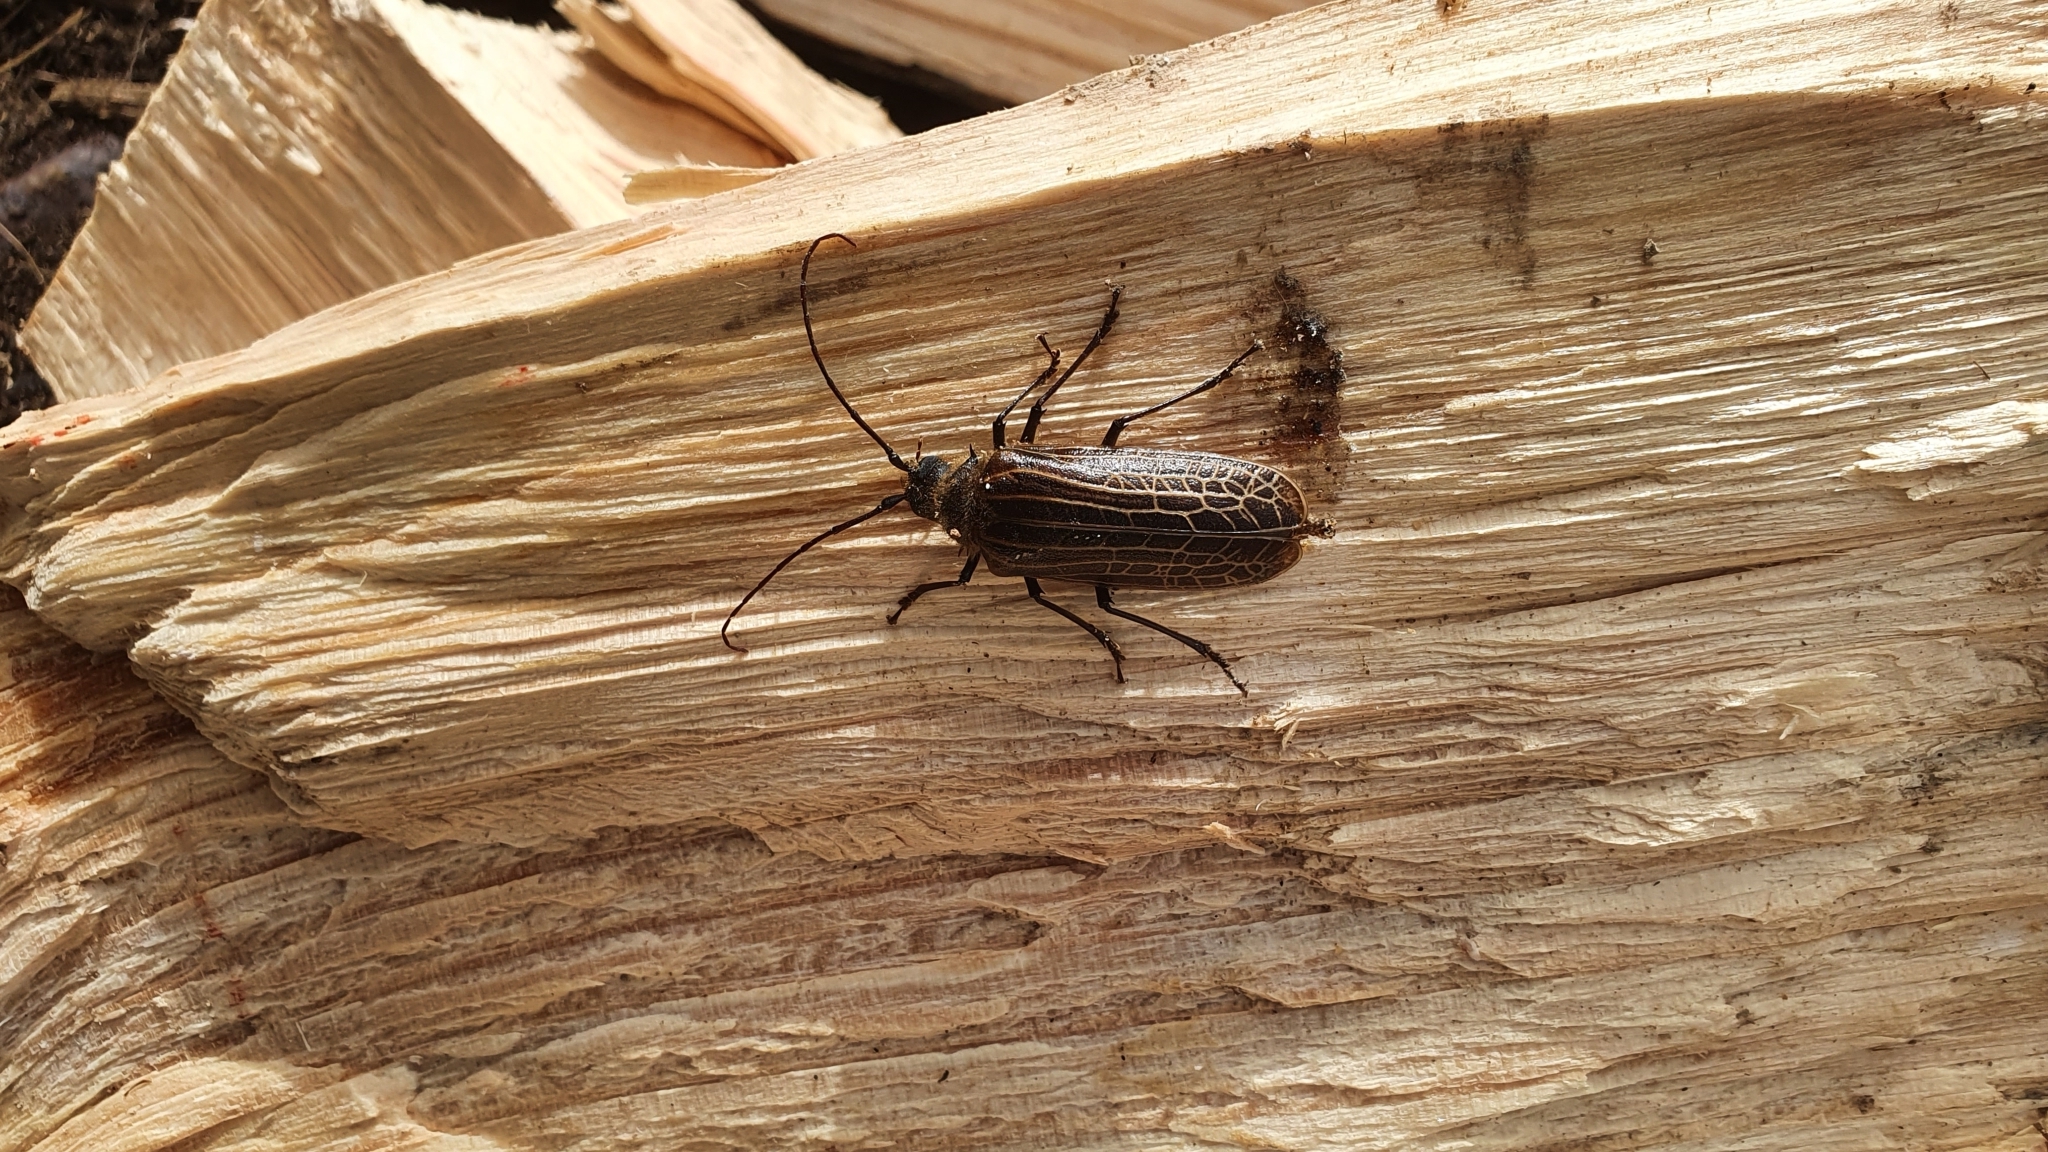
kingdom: Animalia
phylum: Arthropoda
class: Insecta
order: Coleoptera
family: Cerambycidae
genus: Prionoplus
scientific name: Prionoplus reticularis
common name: Huhu beetle
